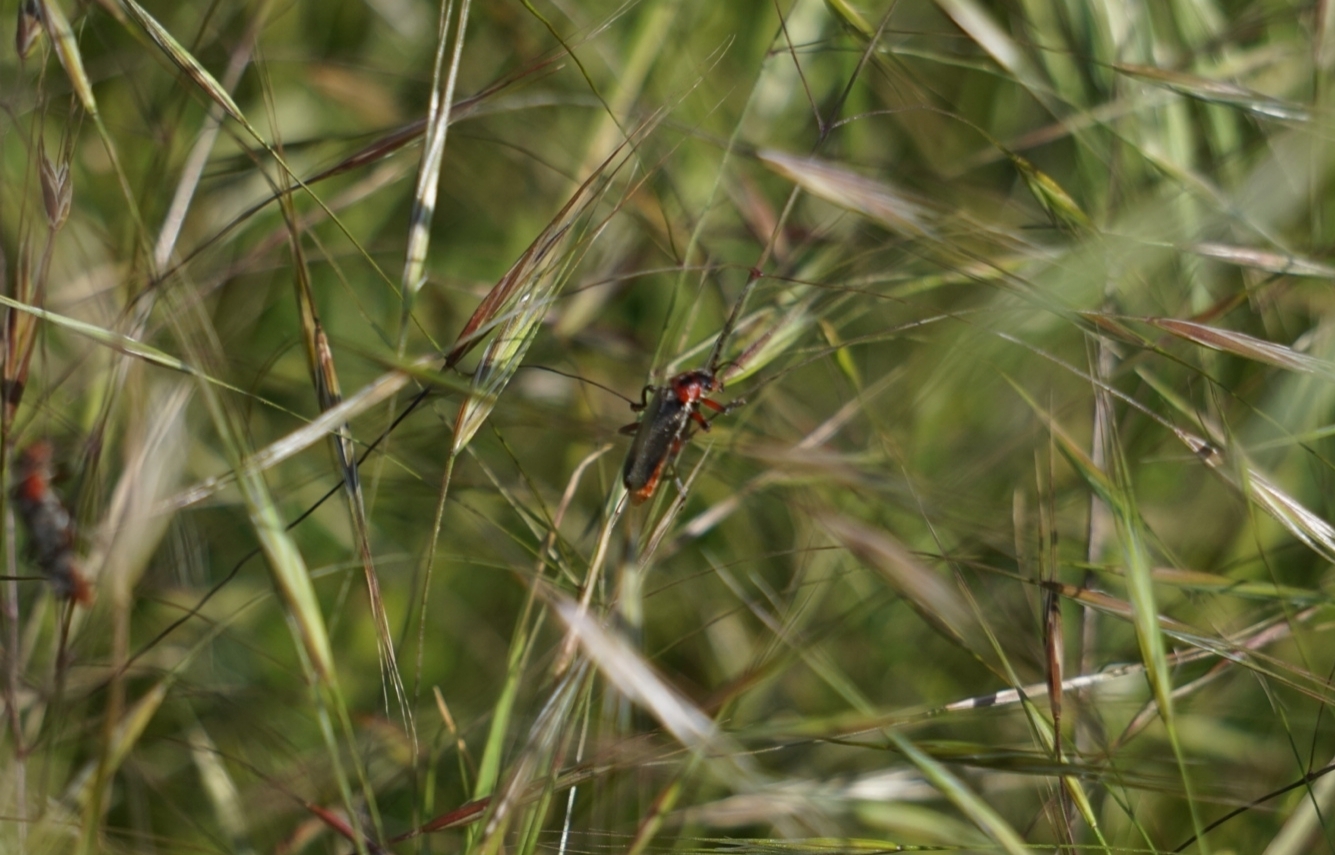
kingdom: Animalia
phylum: Arthropoda
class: Insecta
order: Coleoptera
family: Cantharidae
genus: Cantharis
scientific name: Cantharis rustica
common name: Soldier beetle
